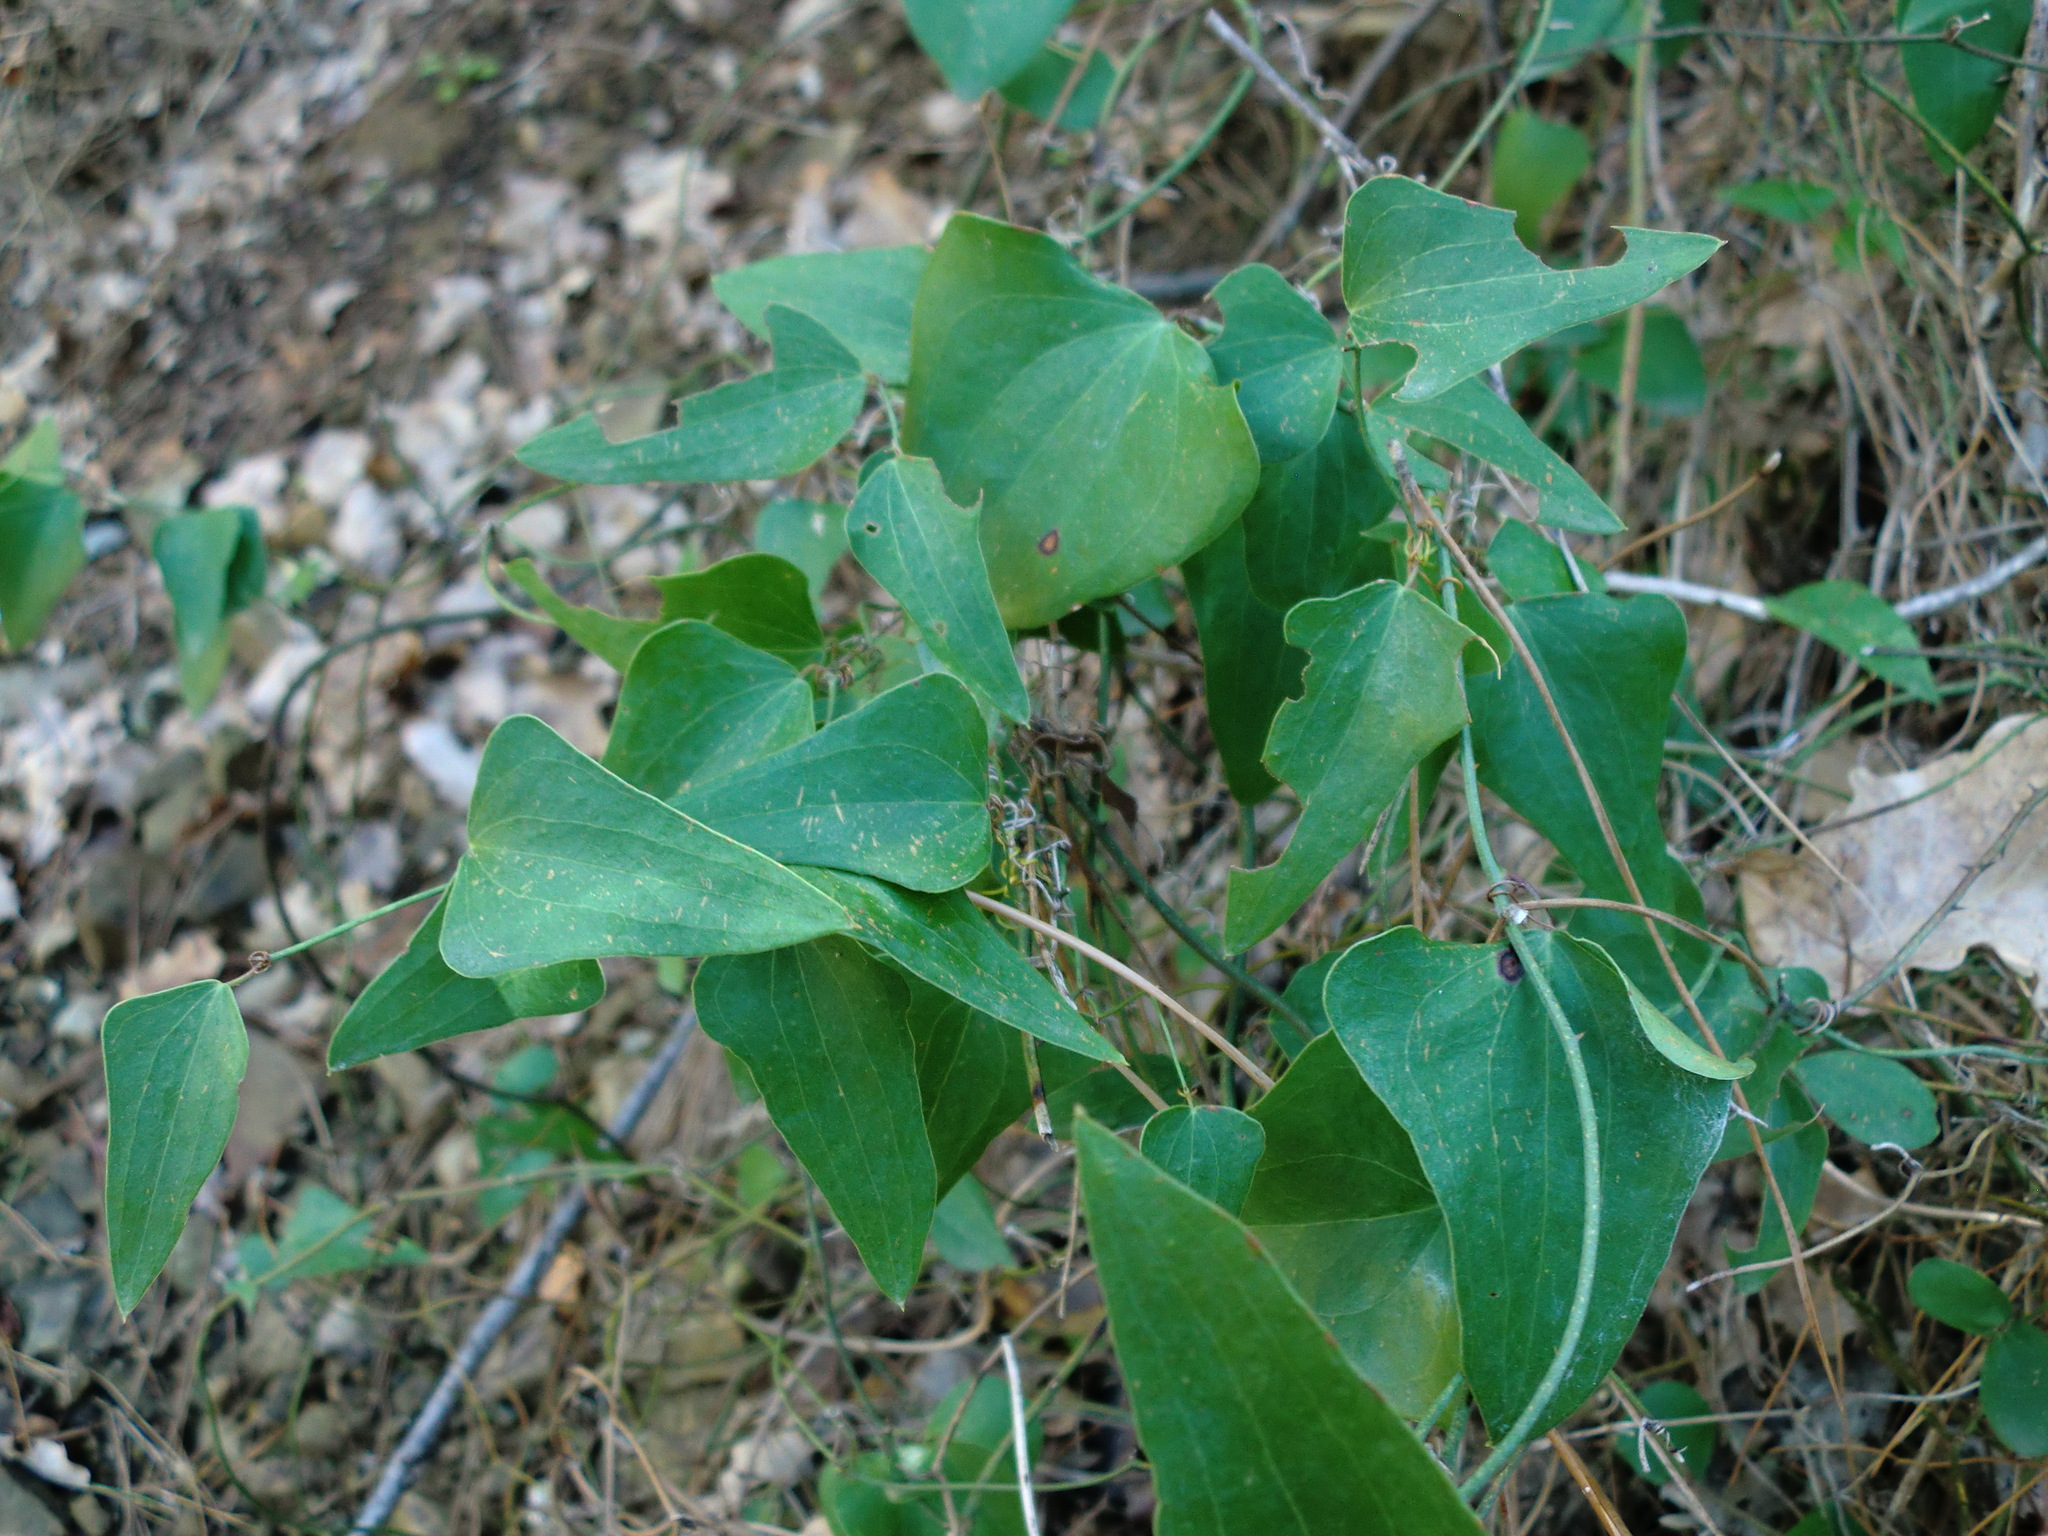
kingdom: Plantae
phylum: Tracheophyta
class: Liliopsida
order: Liliales
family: Smilacaceae
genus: Smilax
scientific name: Smilax aspera
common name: Common smilax
